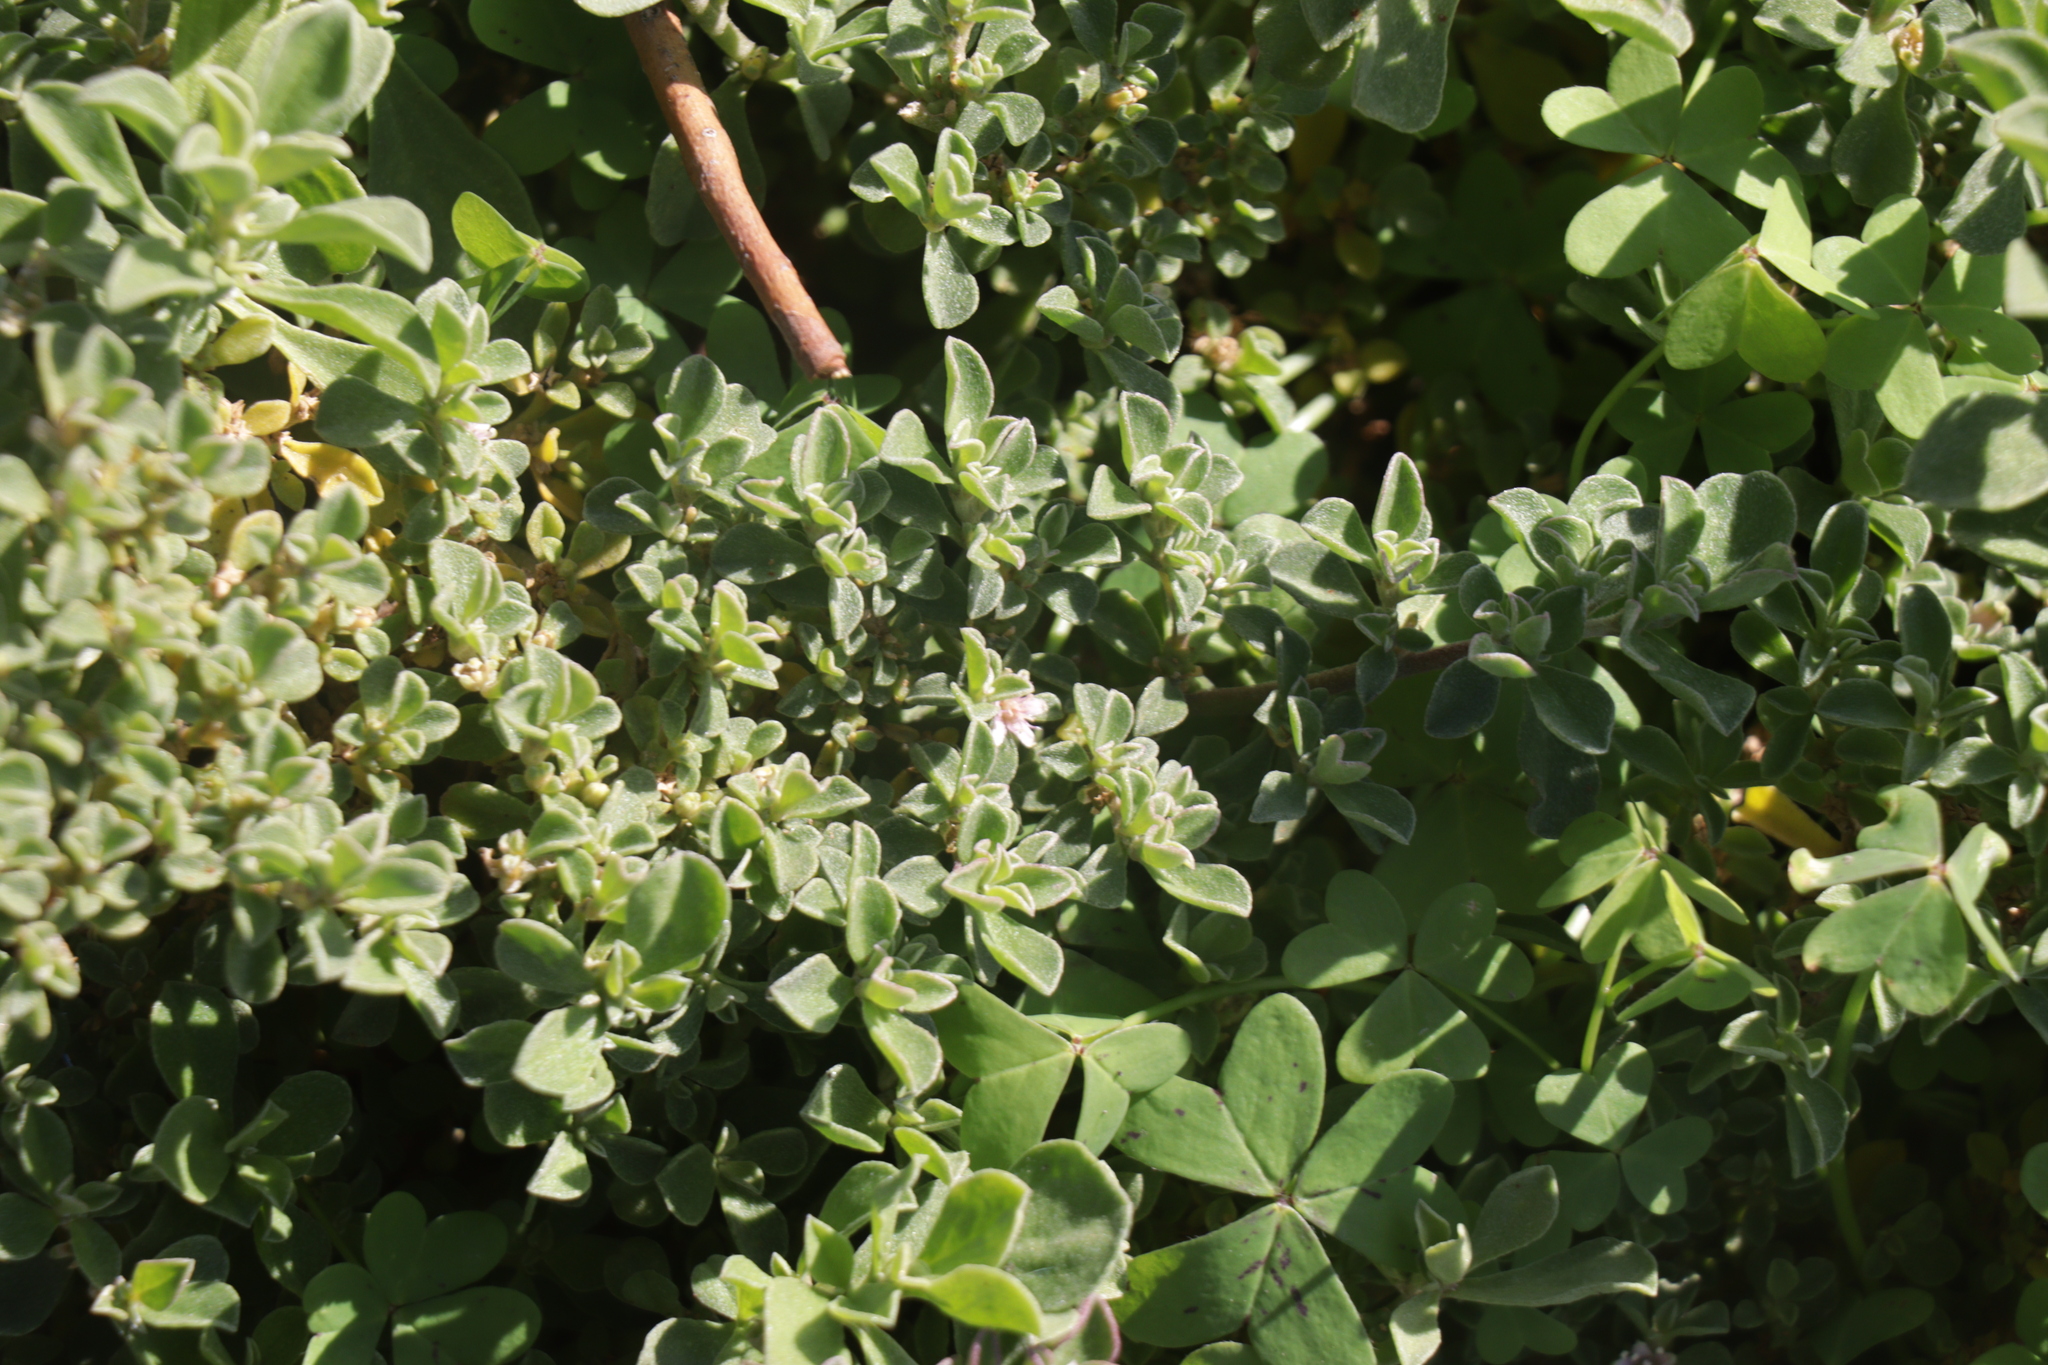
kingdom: Plantae
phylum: Tracheophyta
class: Magnoliopsida
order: Caryophyllales
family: Aizoaceae
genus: Aizoon
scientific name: Aizoon pubescens
